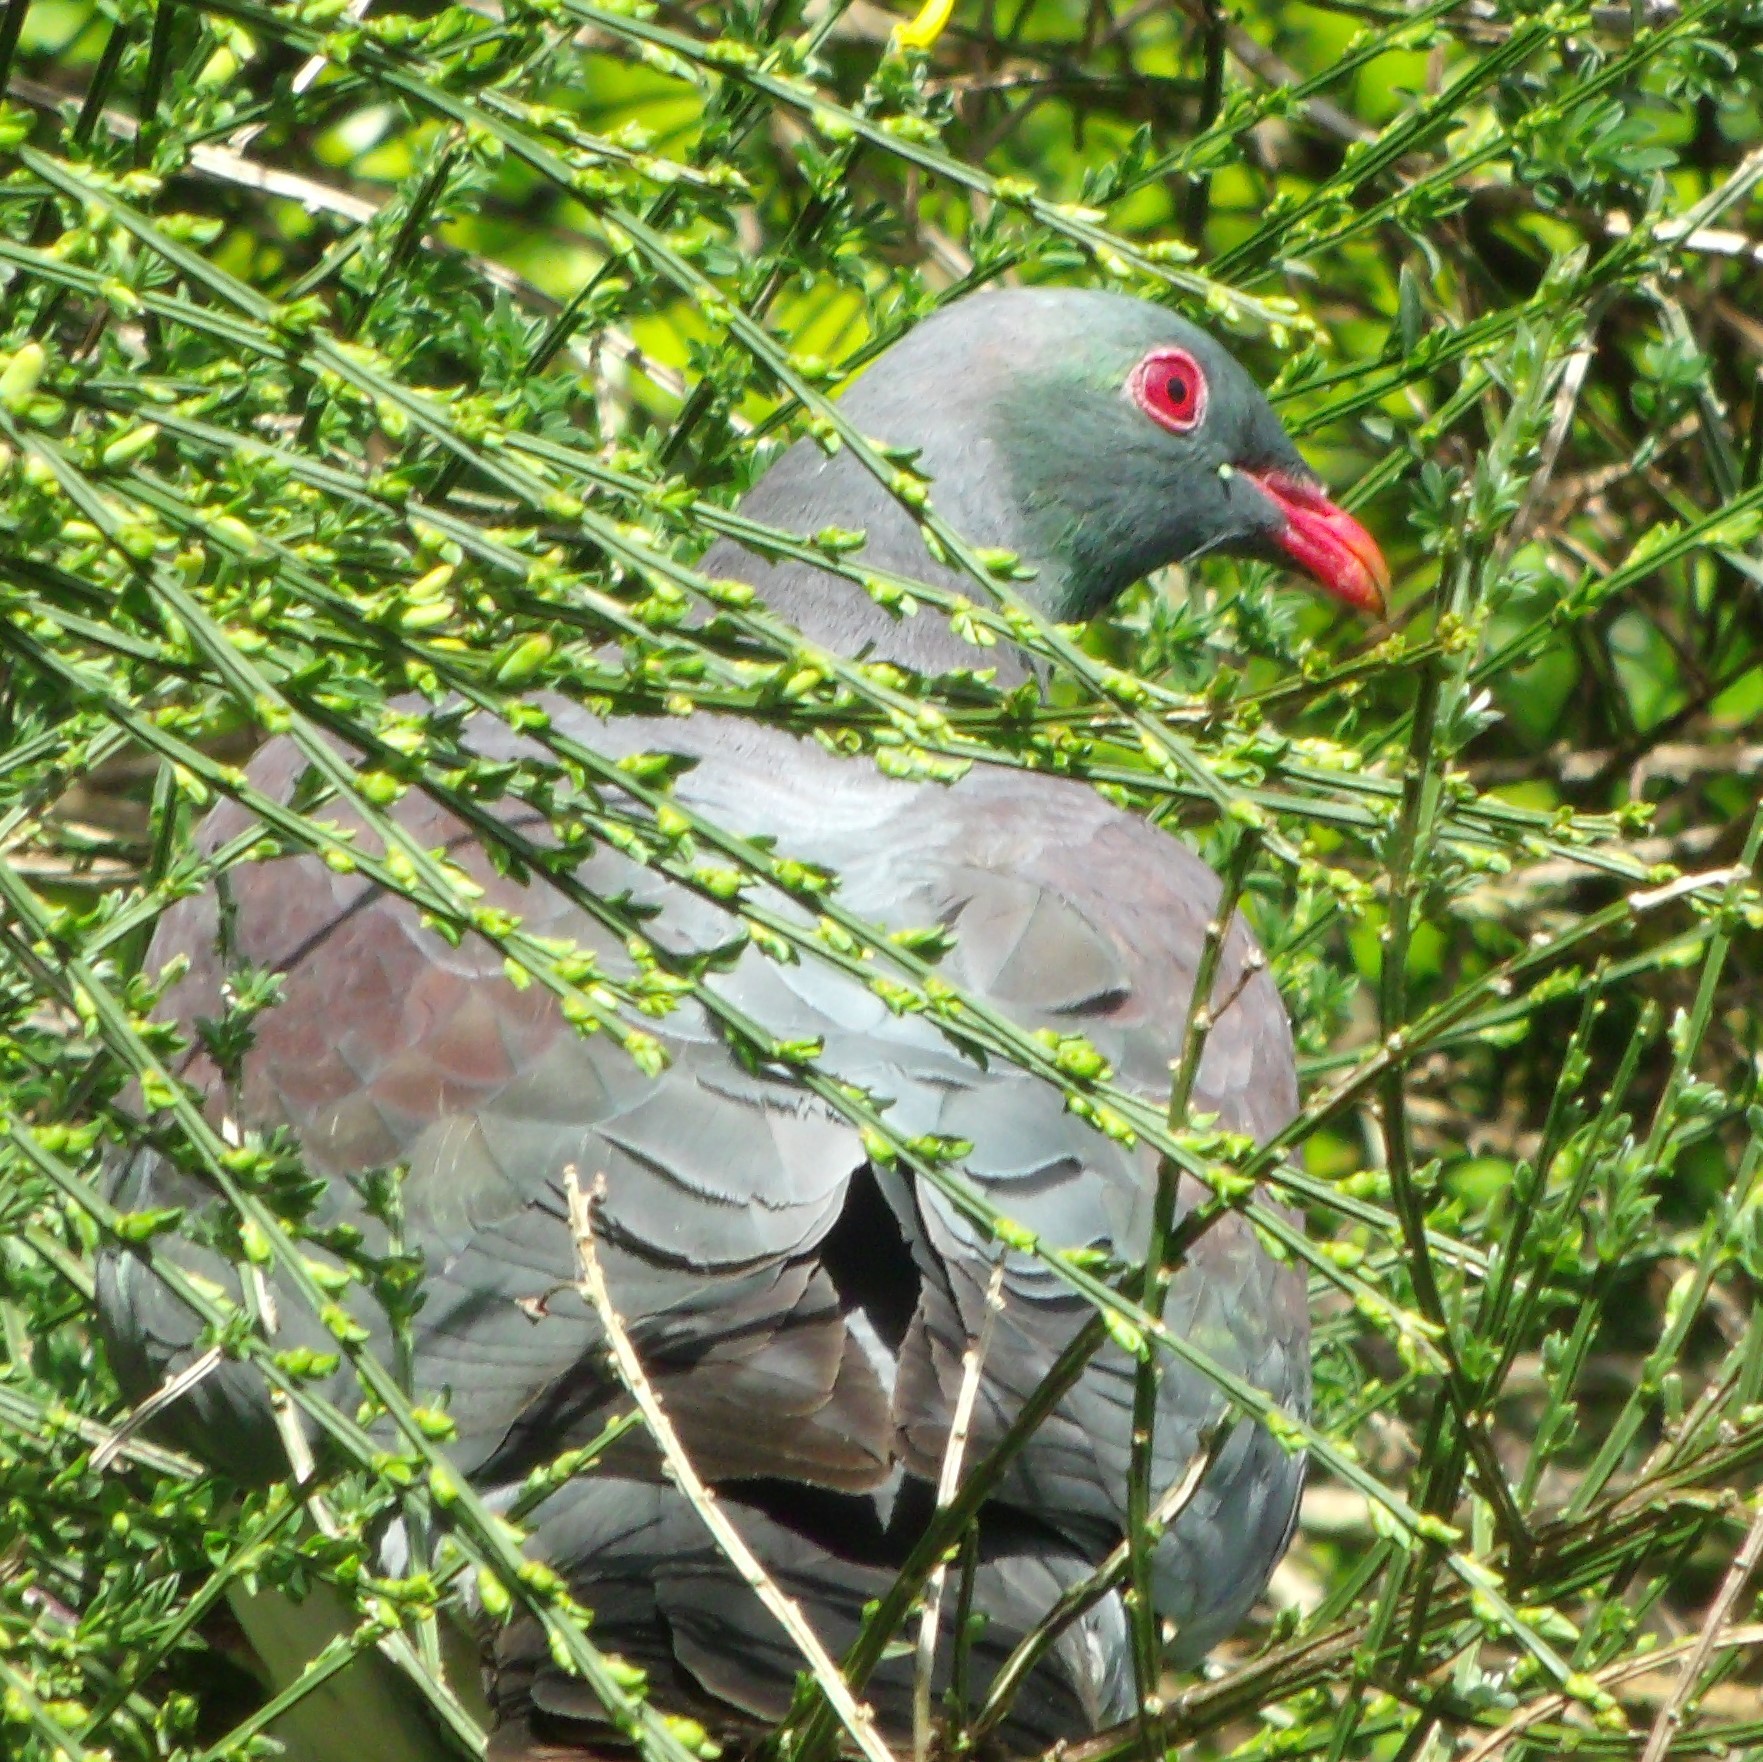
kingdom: Animalia
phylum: Chordata
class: Aves
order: Columbiformes
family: Columbidae
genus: Hemiphaga
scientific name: Hemiphaga novaeseelandiae
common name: New zealand pigeon
